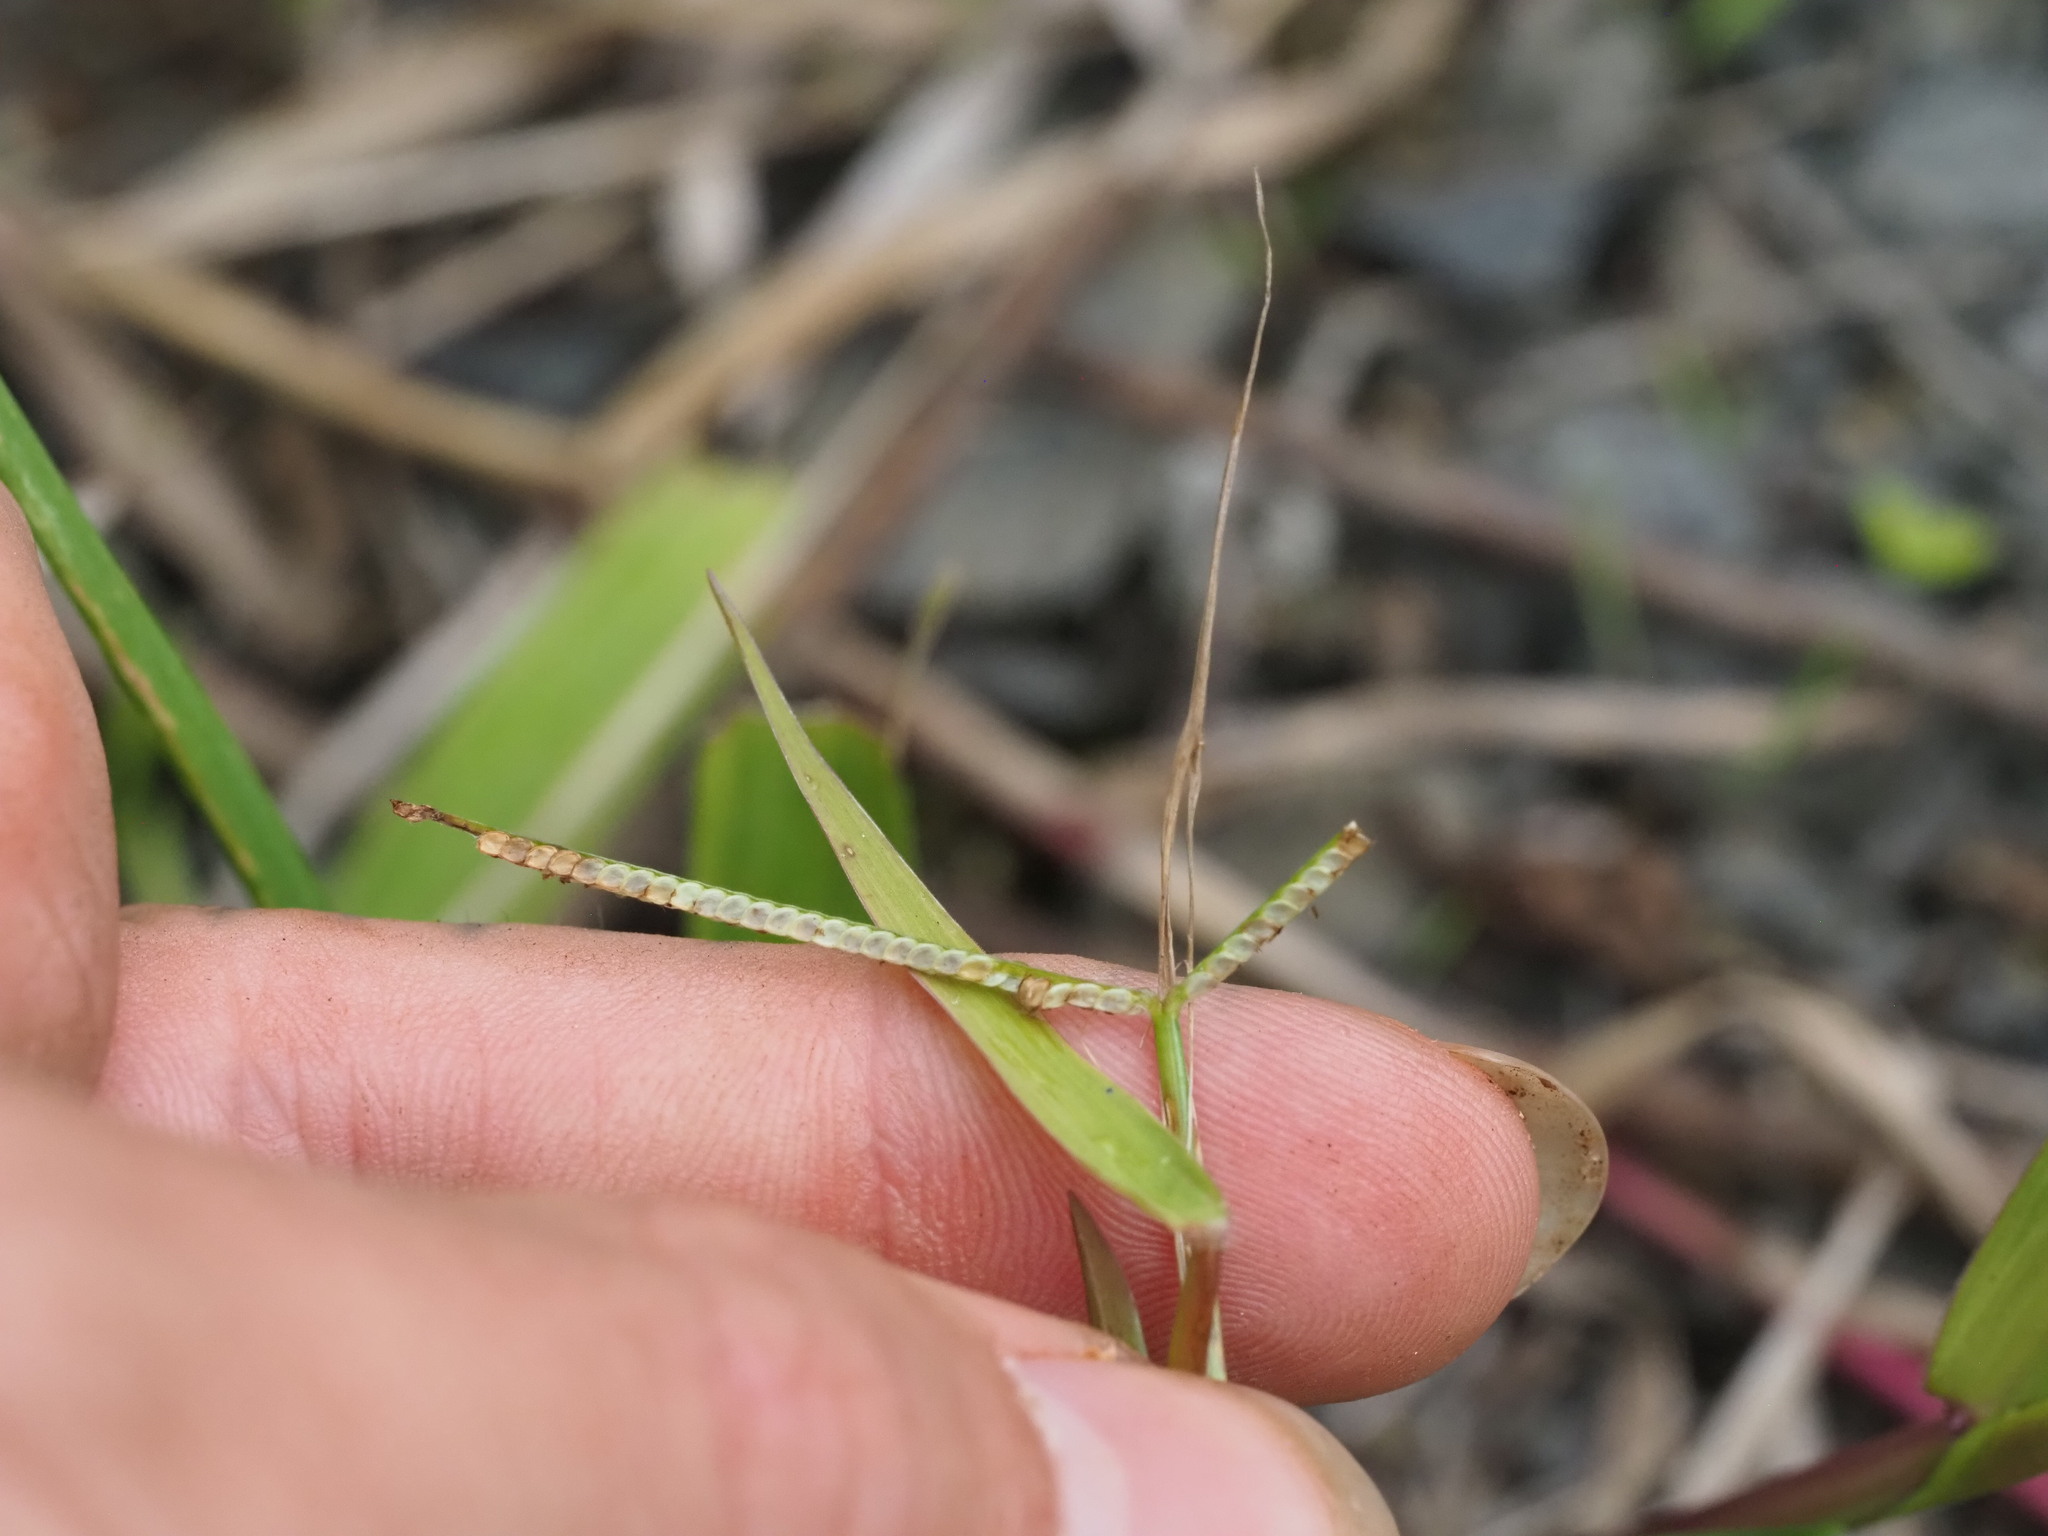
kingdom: Plantae
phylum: Tracheophyta
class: Liliopsida
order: Poales
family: Poaceae
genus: Paspalum
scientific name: Paspalum conjugatum
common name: Hilograss
